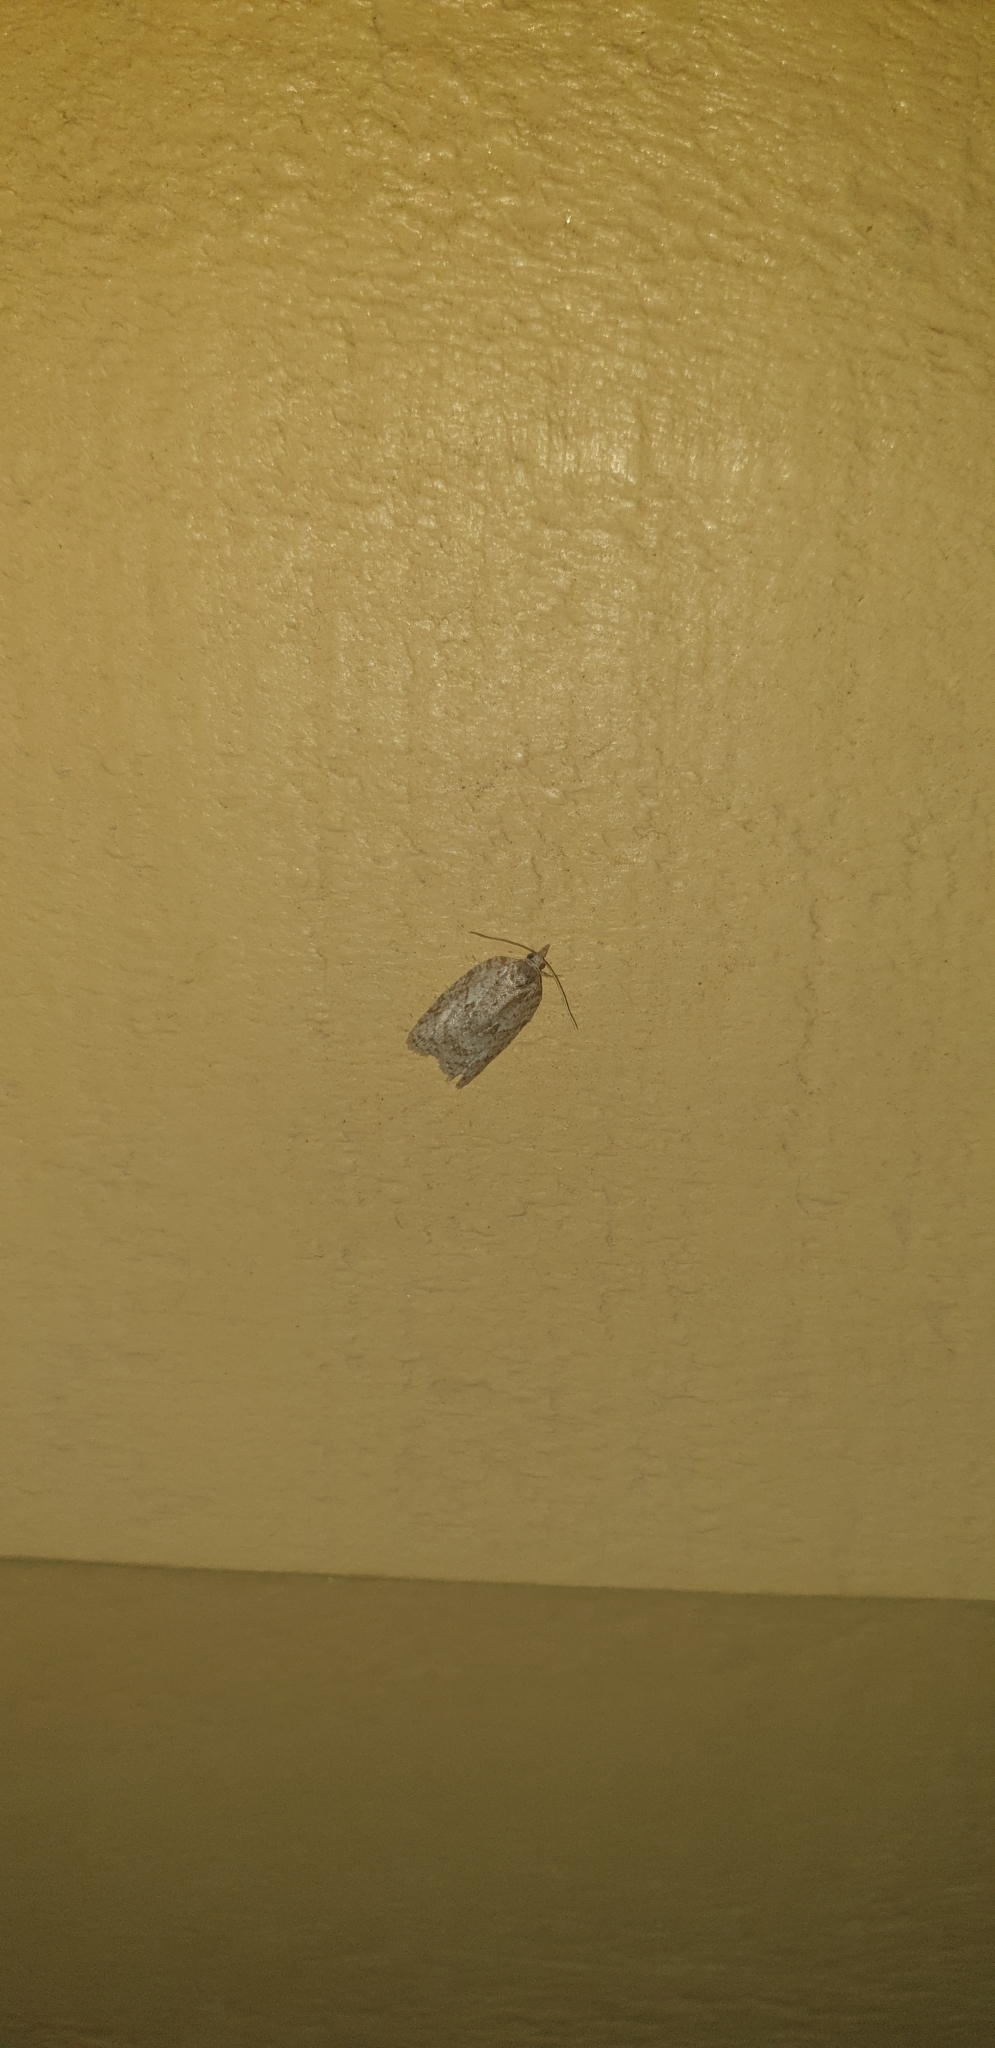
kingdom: Animalia
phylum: Arthropoda
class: Insecta
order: Lepidoptera
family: Tortricidae
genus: Isotenes
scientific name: Isotenes miserana
